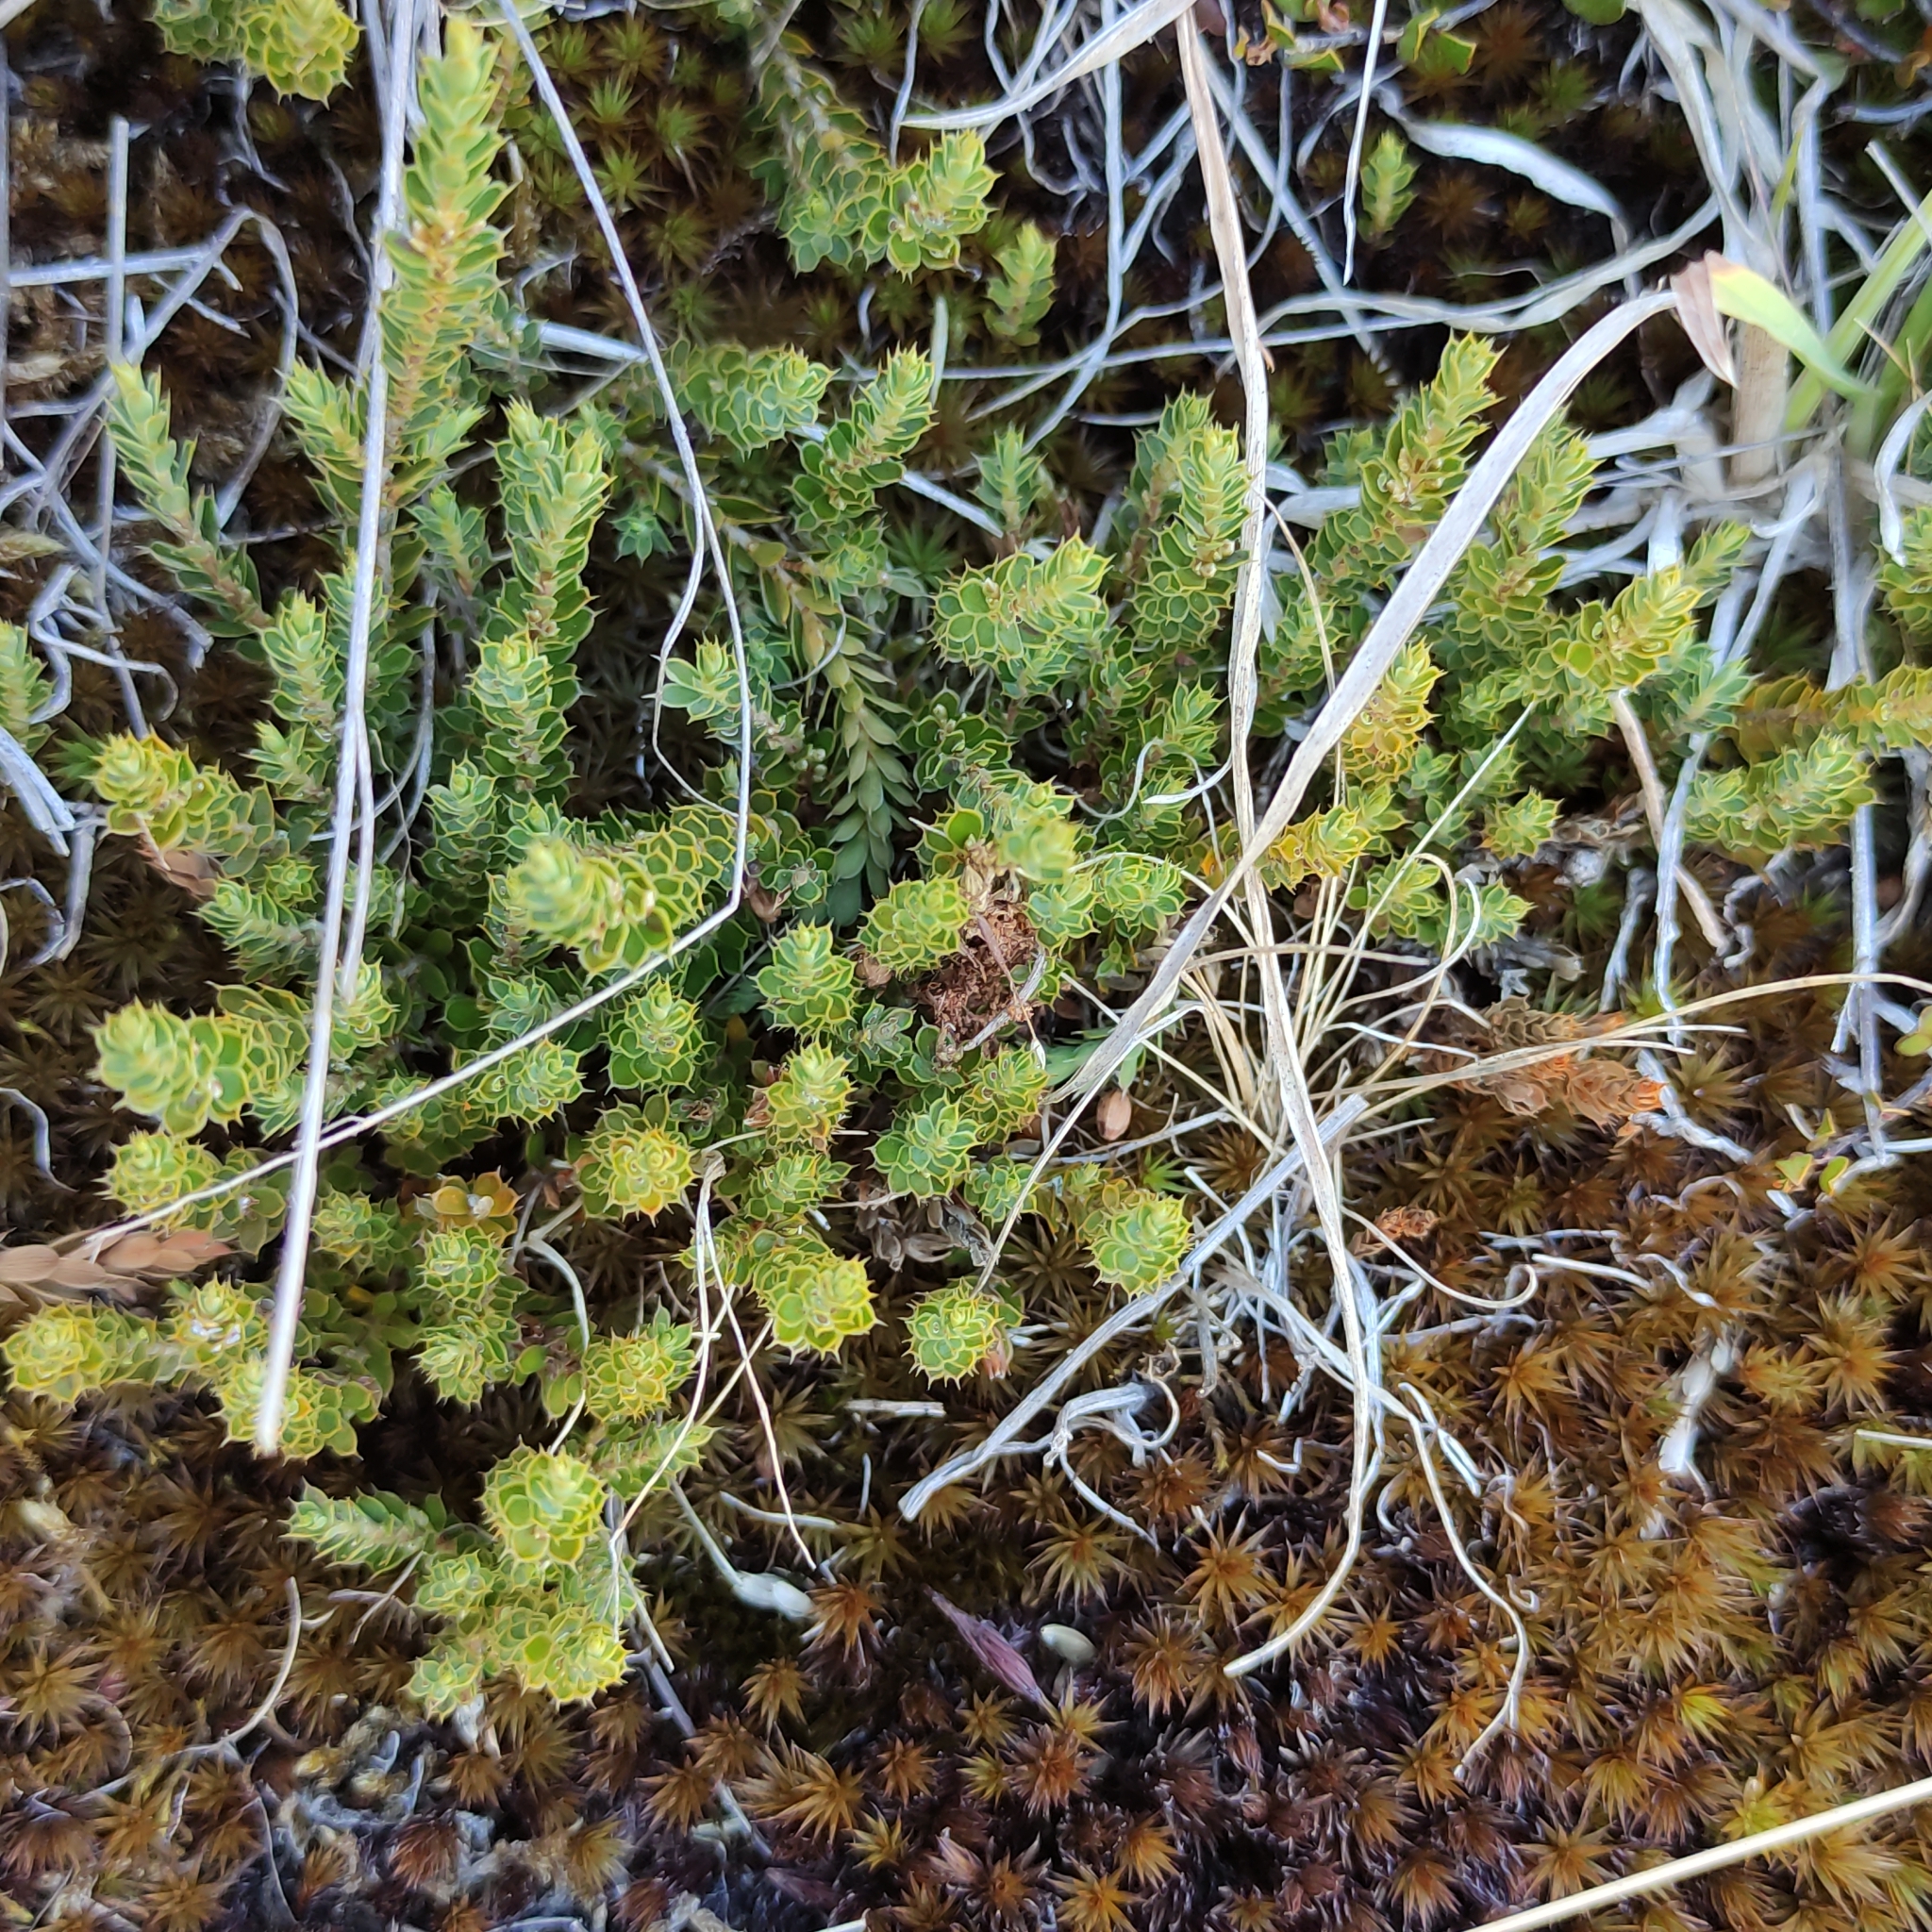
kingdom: Plantae
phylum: Tracheophyta
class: Magnoliopsida
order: Ericales
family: Ericaceae
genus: Styphelia
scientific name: Styphelia nesophila
